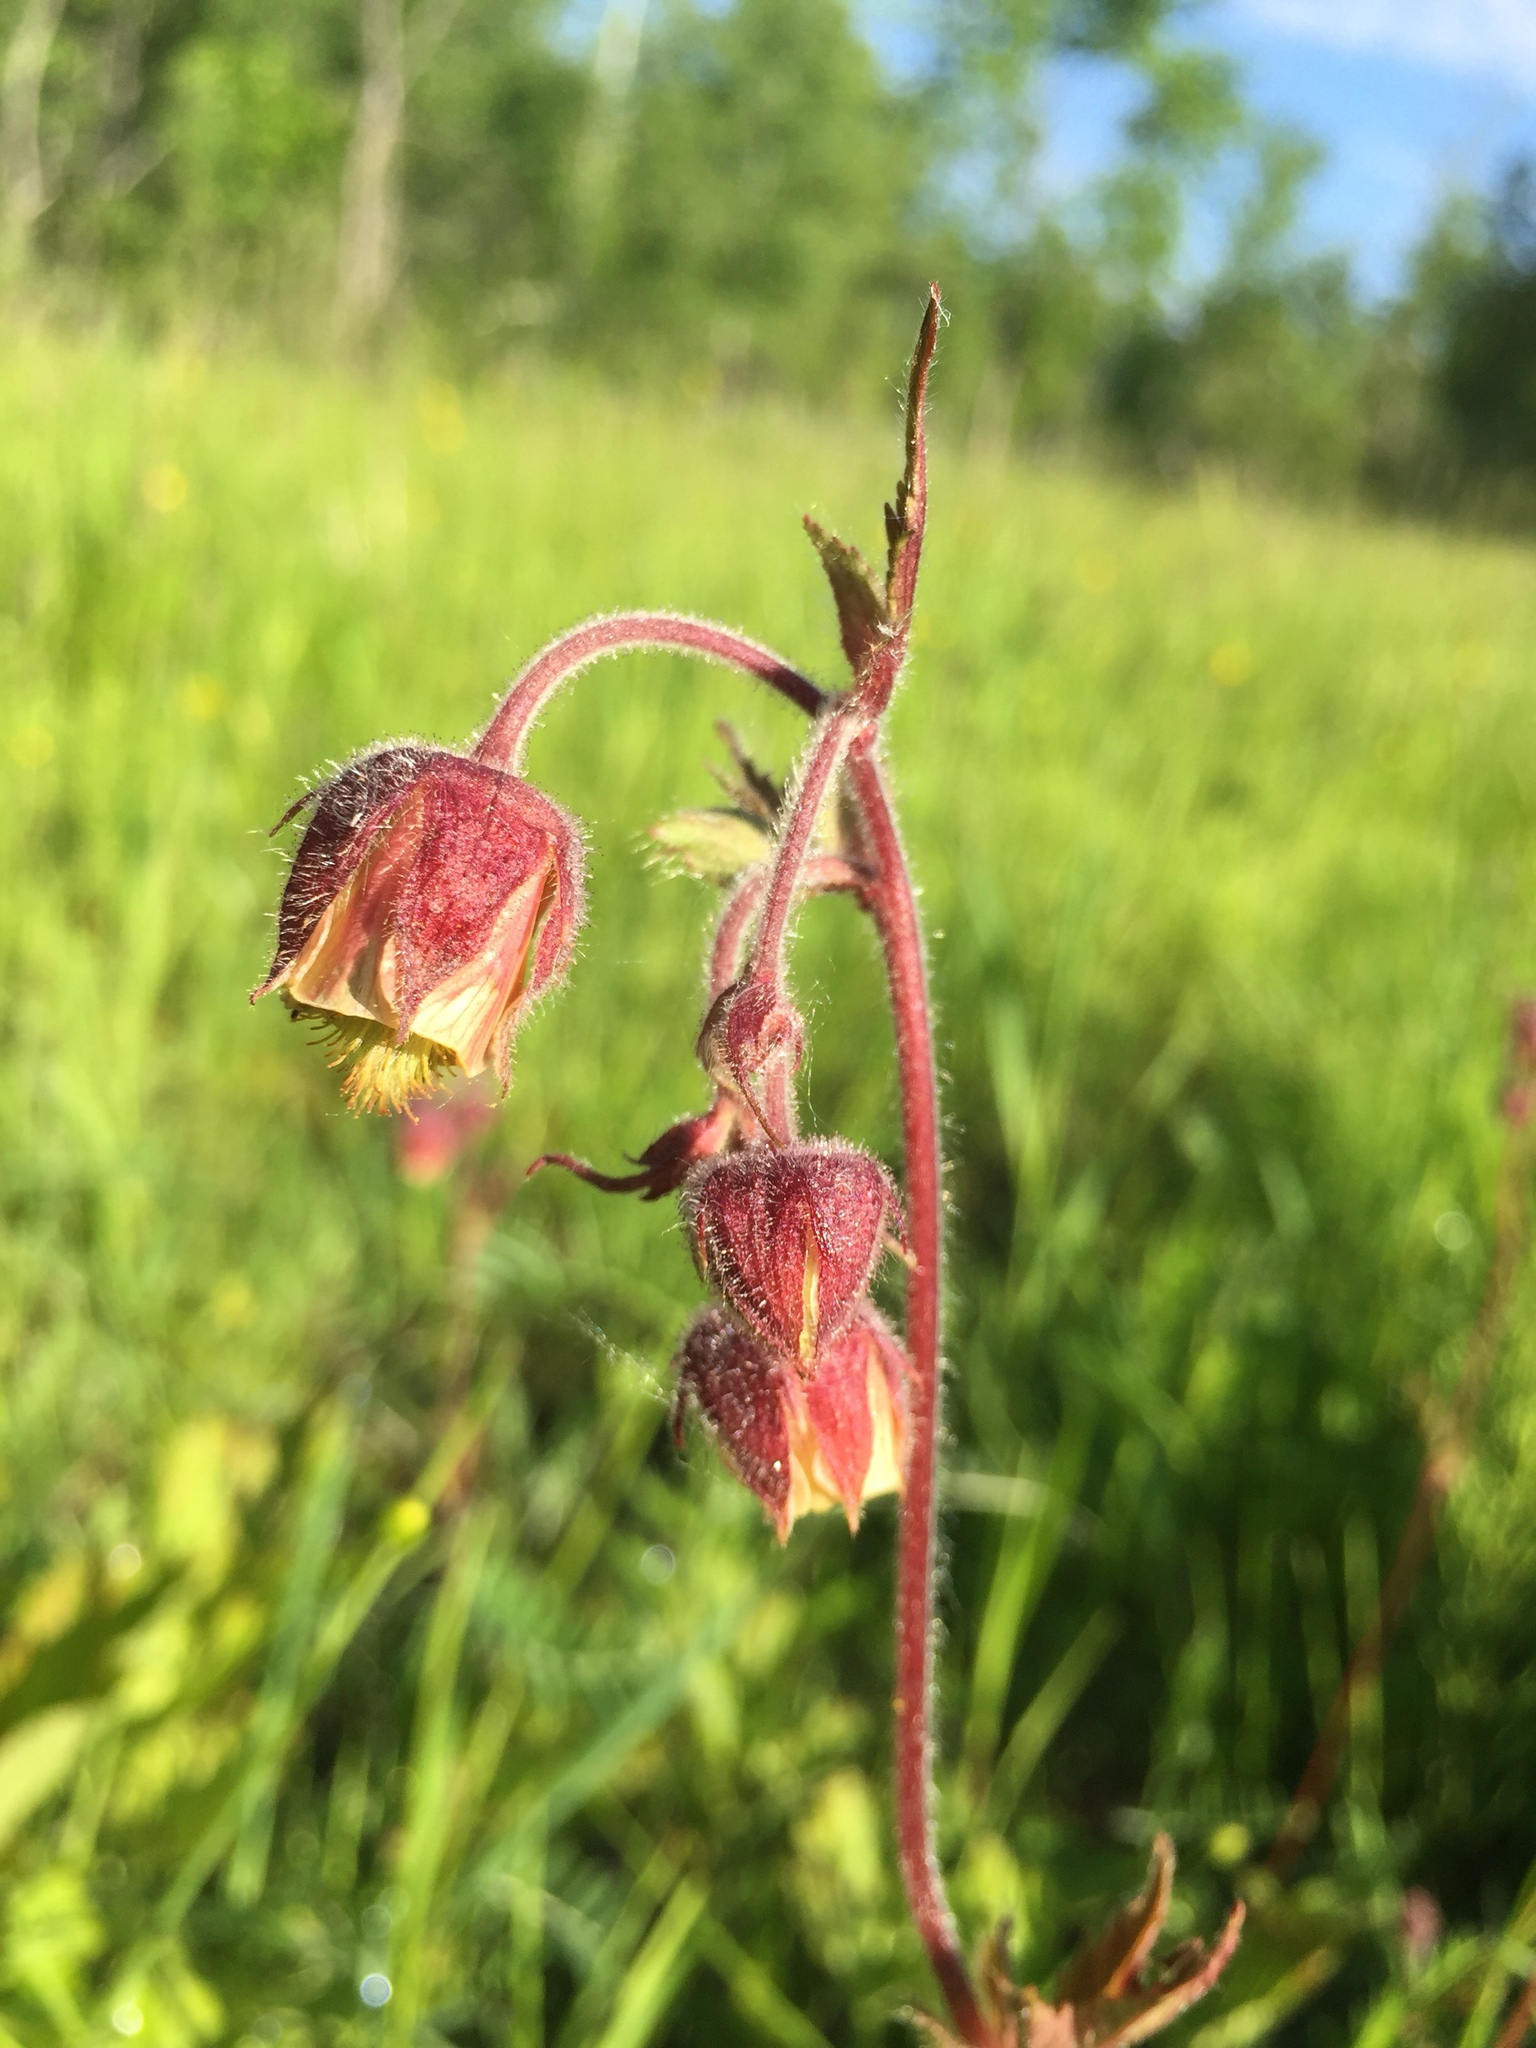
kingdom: Plantae
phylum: Tracheophyta
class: Magnoliopsida
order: Rosales
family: Rosaceae
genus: Geum
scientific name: Geum rivale
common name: Water avens
